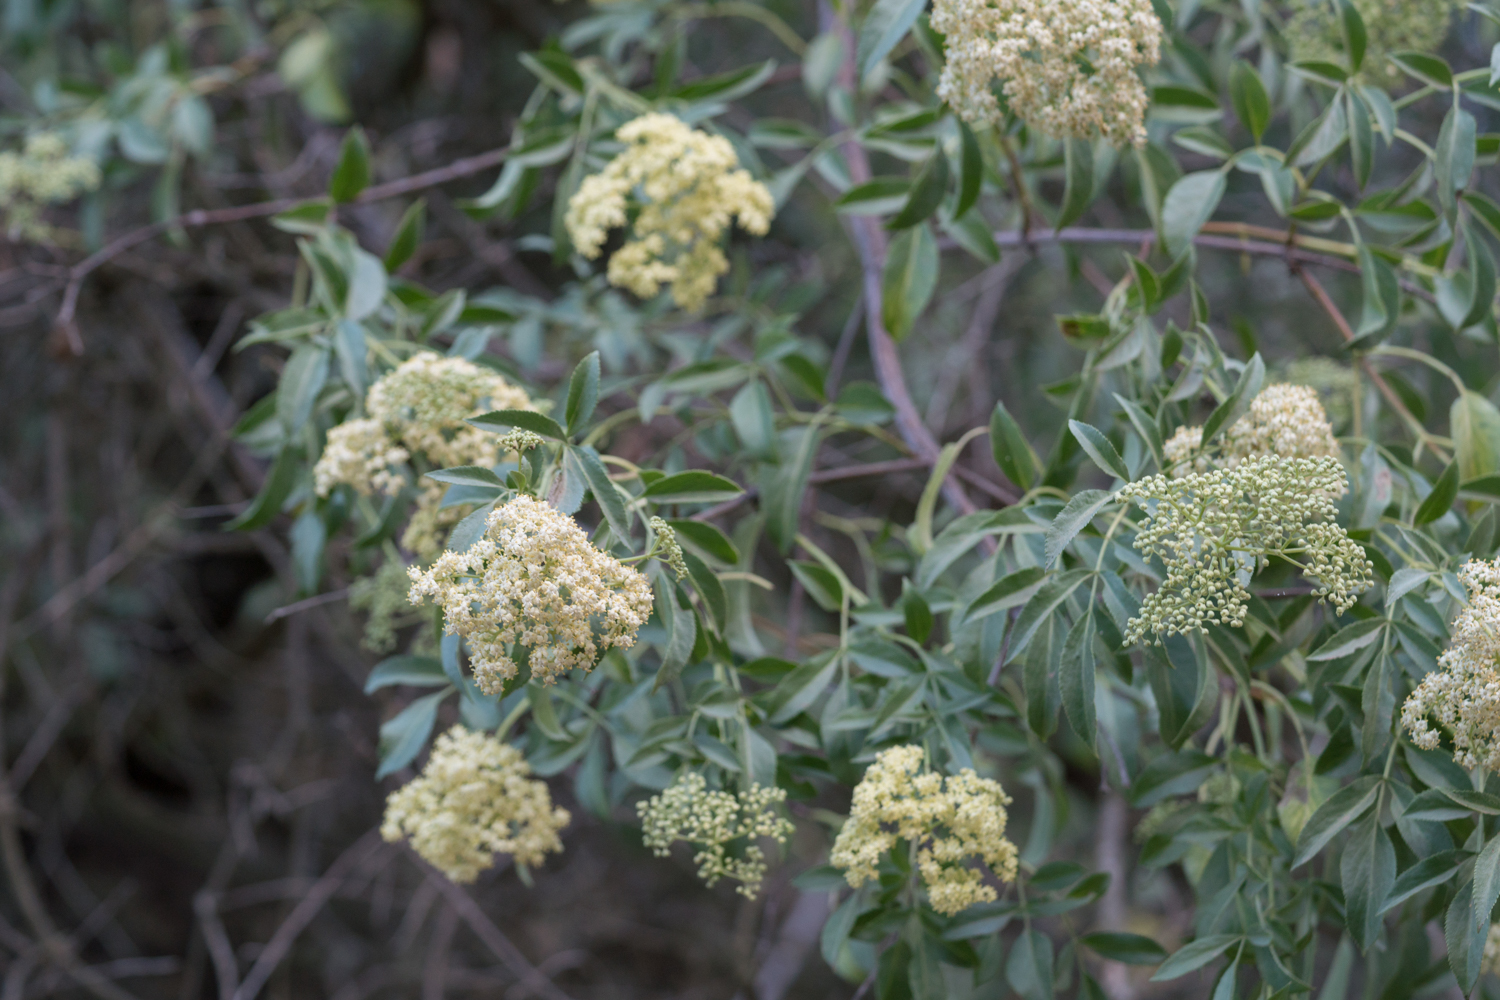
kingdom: Plantae
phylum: Tracheophyta
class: Magnoliopsida
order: Dipsacales
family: Viburnaceae
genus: Sambucus
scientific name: Sambucus cerulea
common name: Blue elder
